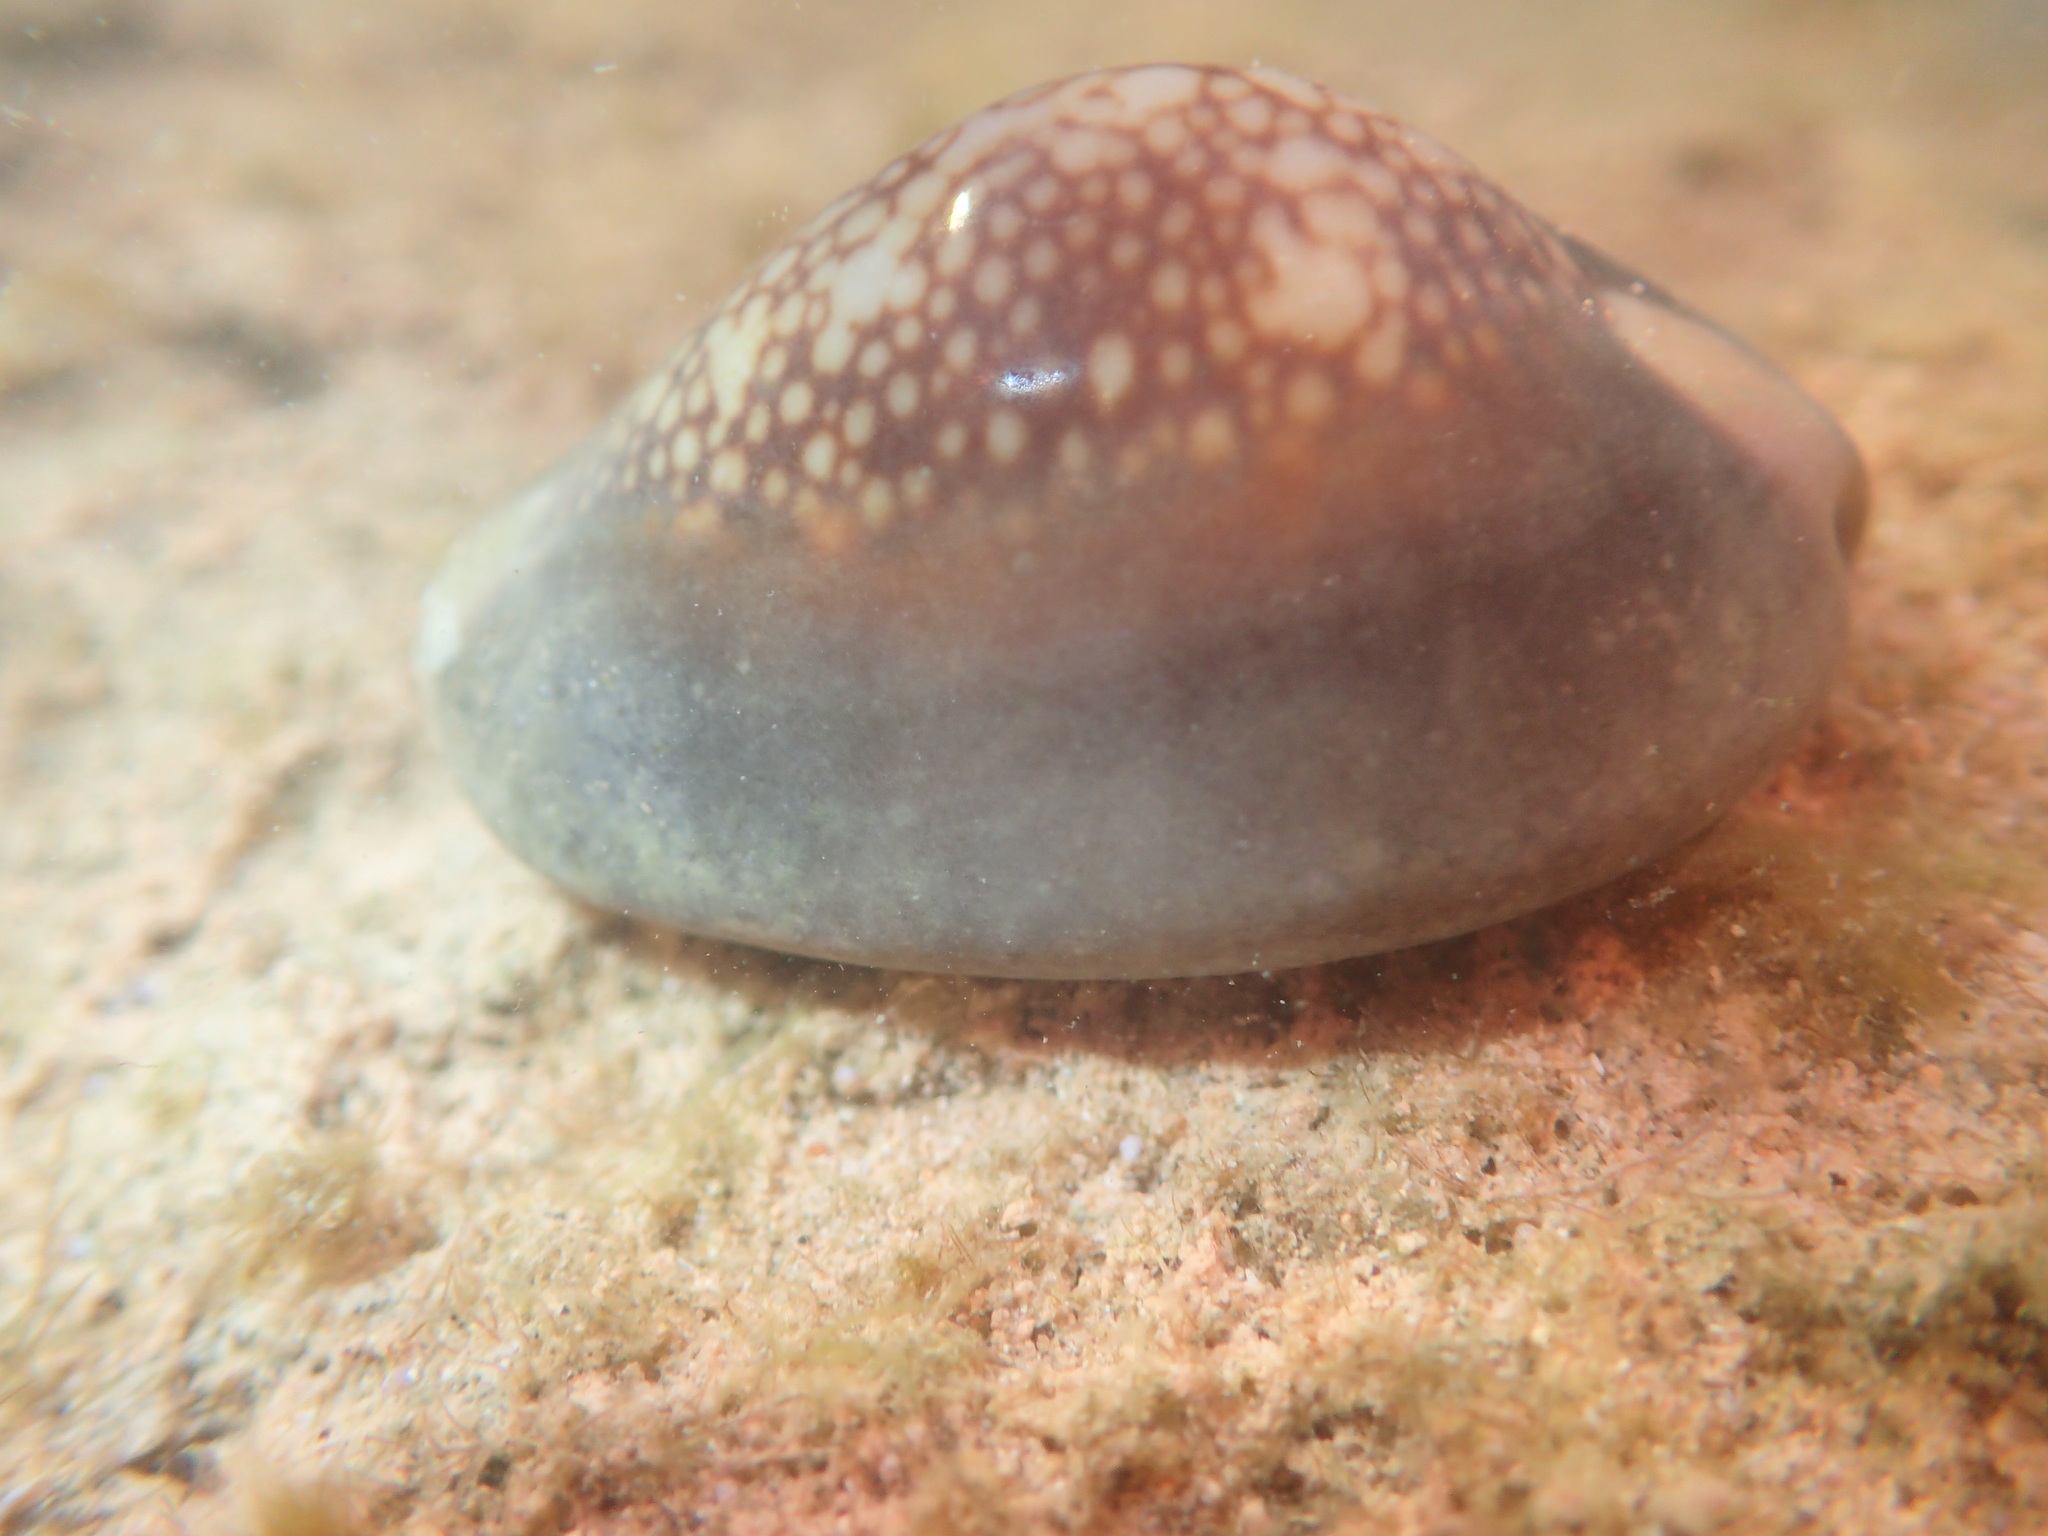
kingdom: Animalia
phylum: Mollusca
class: Gastropoda
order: Littorinimorpha
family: Cypraeidae
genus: Monetaria
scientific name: Monetaria caputserpentis
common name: Serpent's head cowrie
